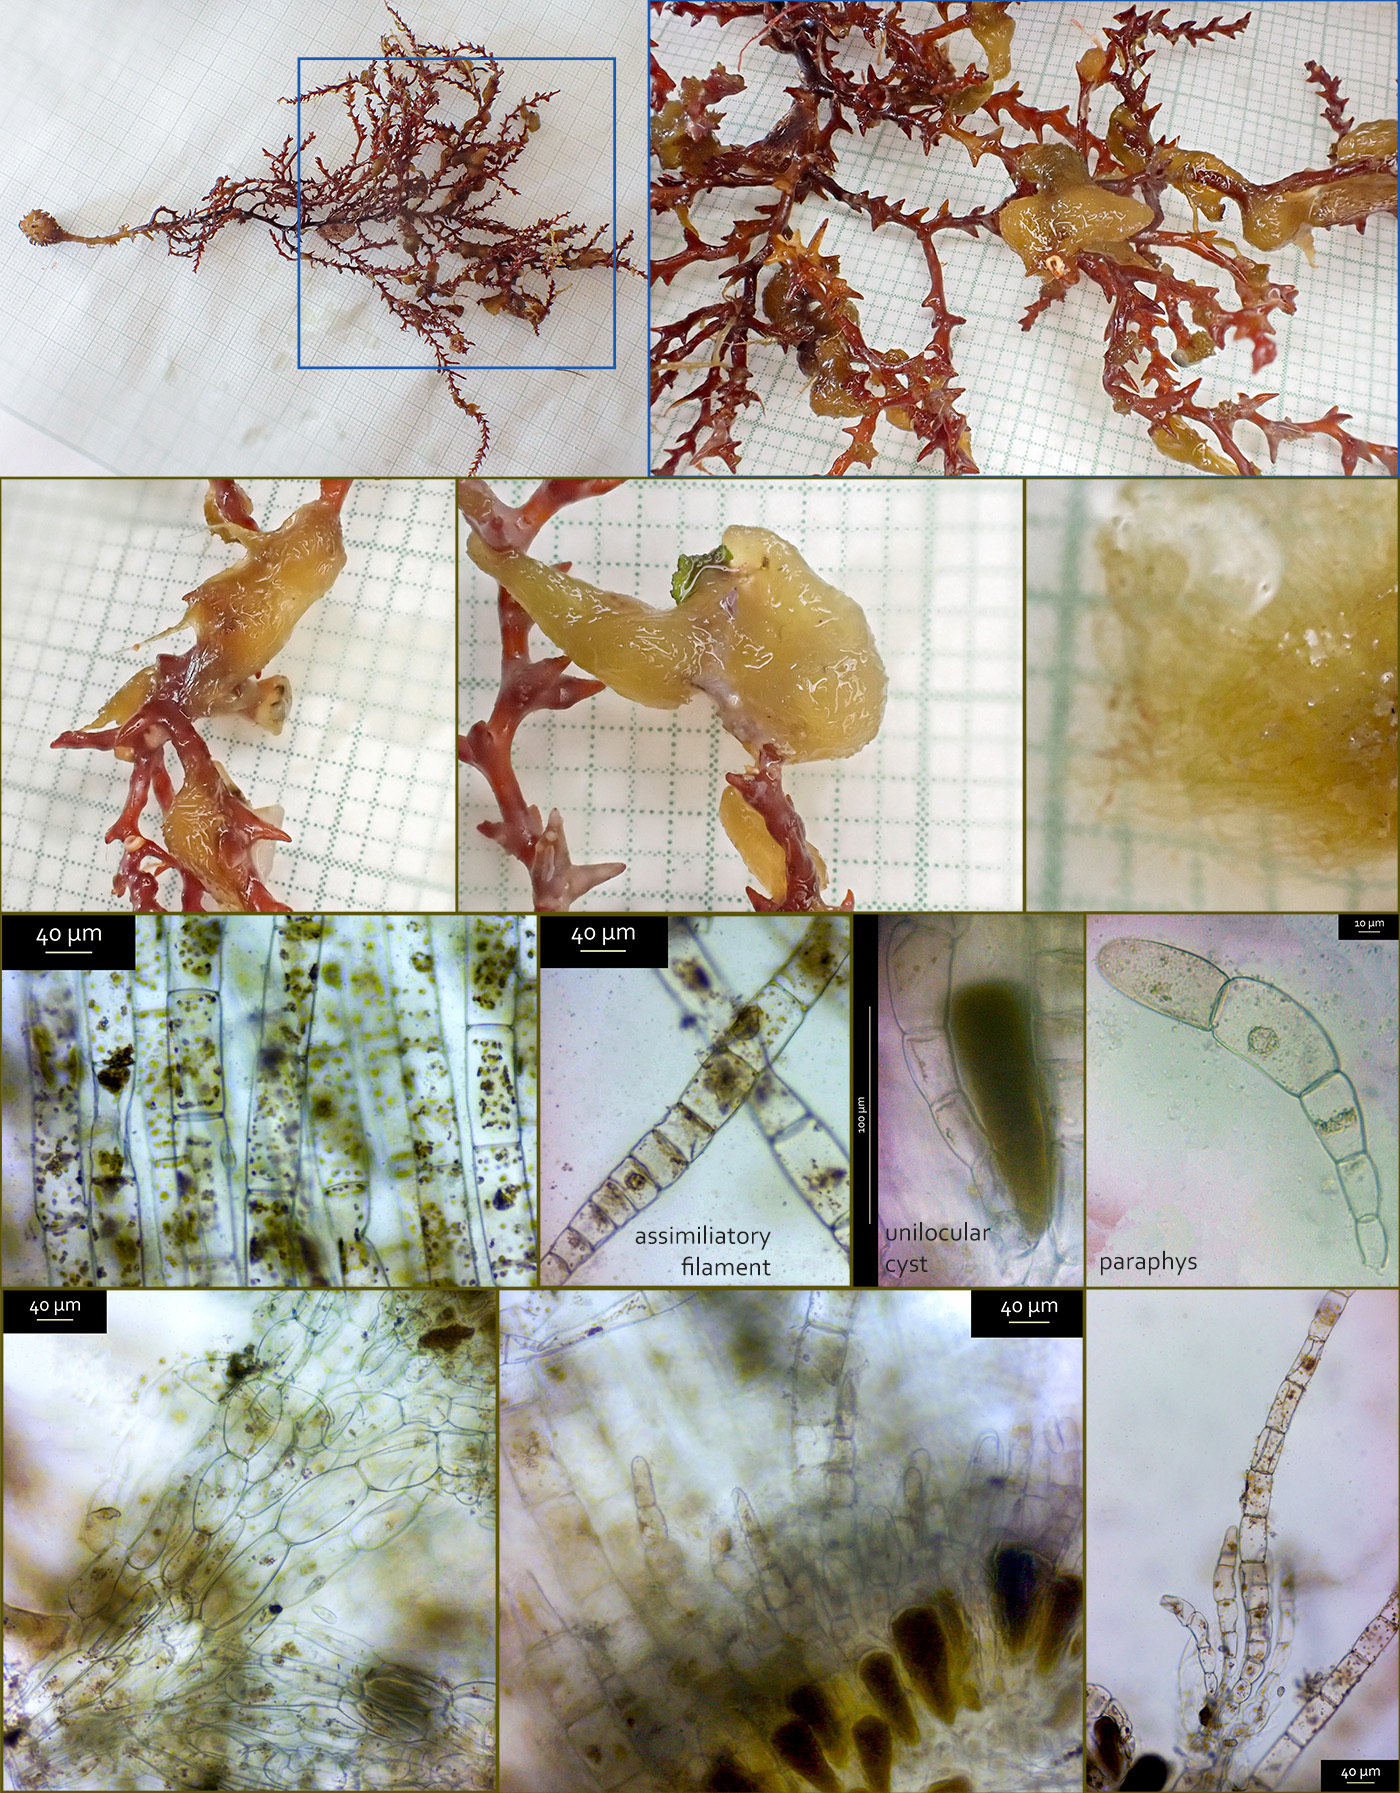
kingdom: Chromista
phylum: Ochrophyta
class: Phaeophyceae
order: Ectocarpales
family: Chordariaceae
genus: Elachista
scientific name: Elachista intermedia
